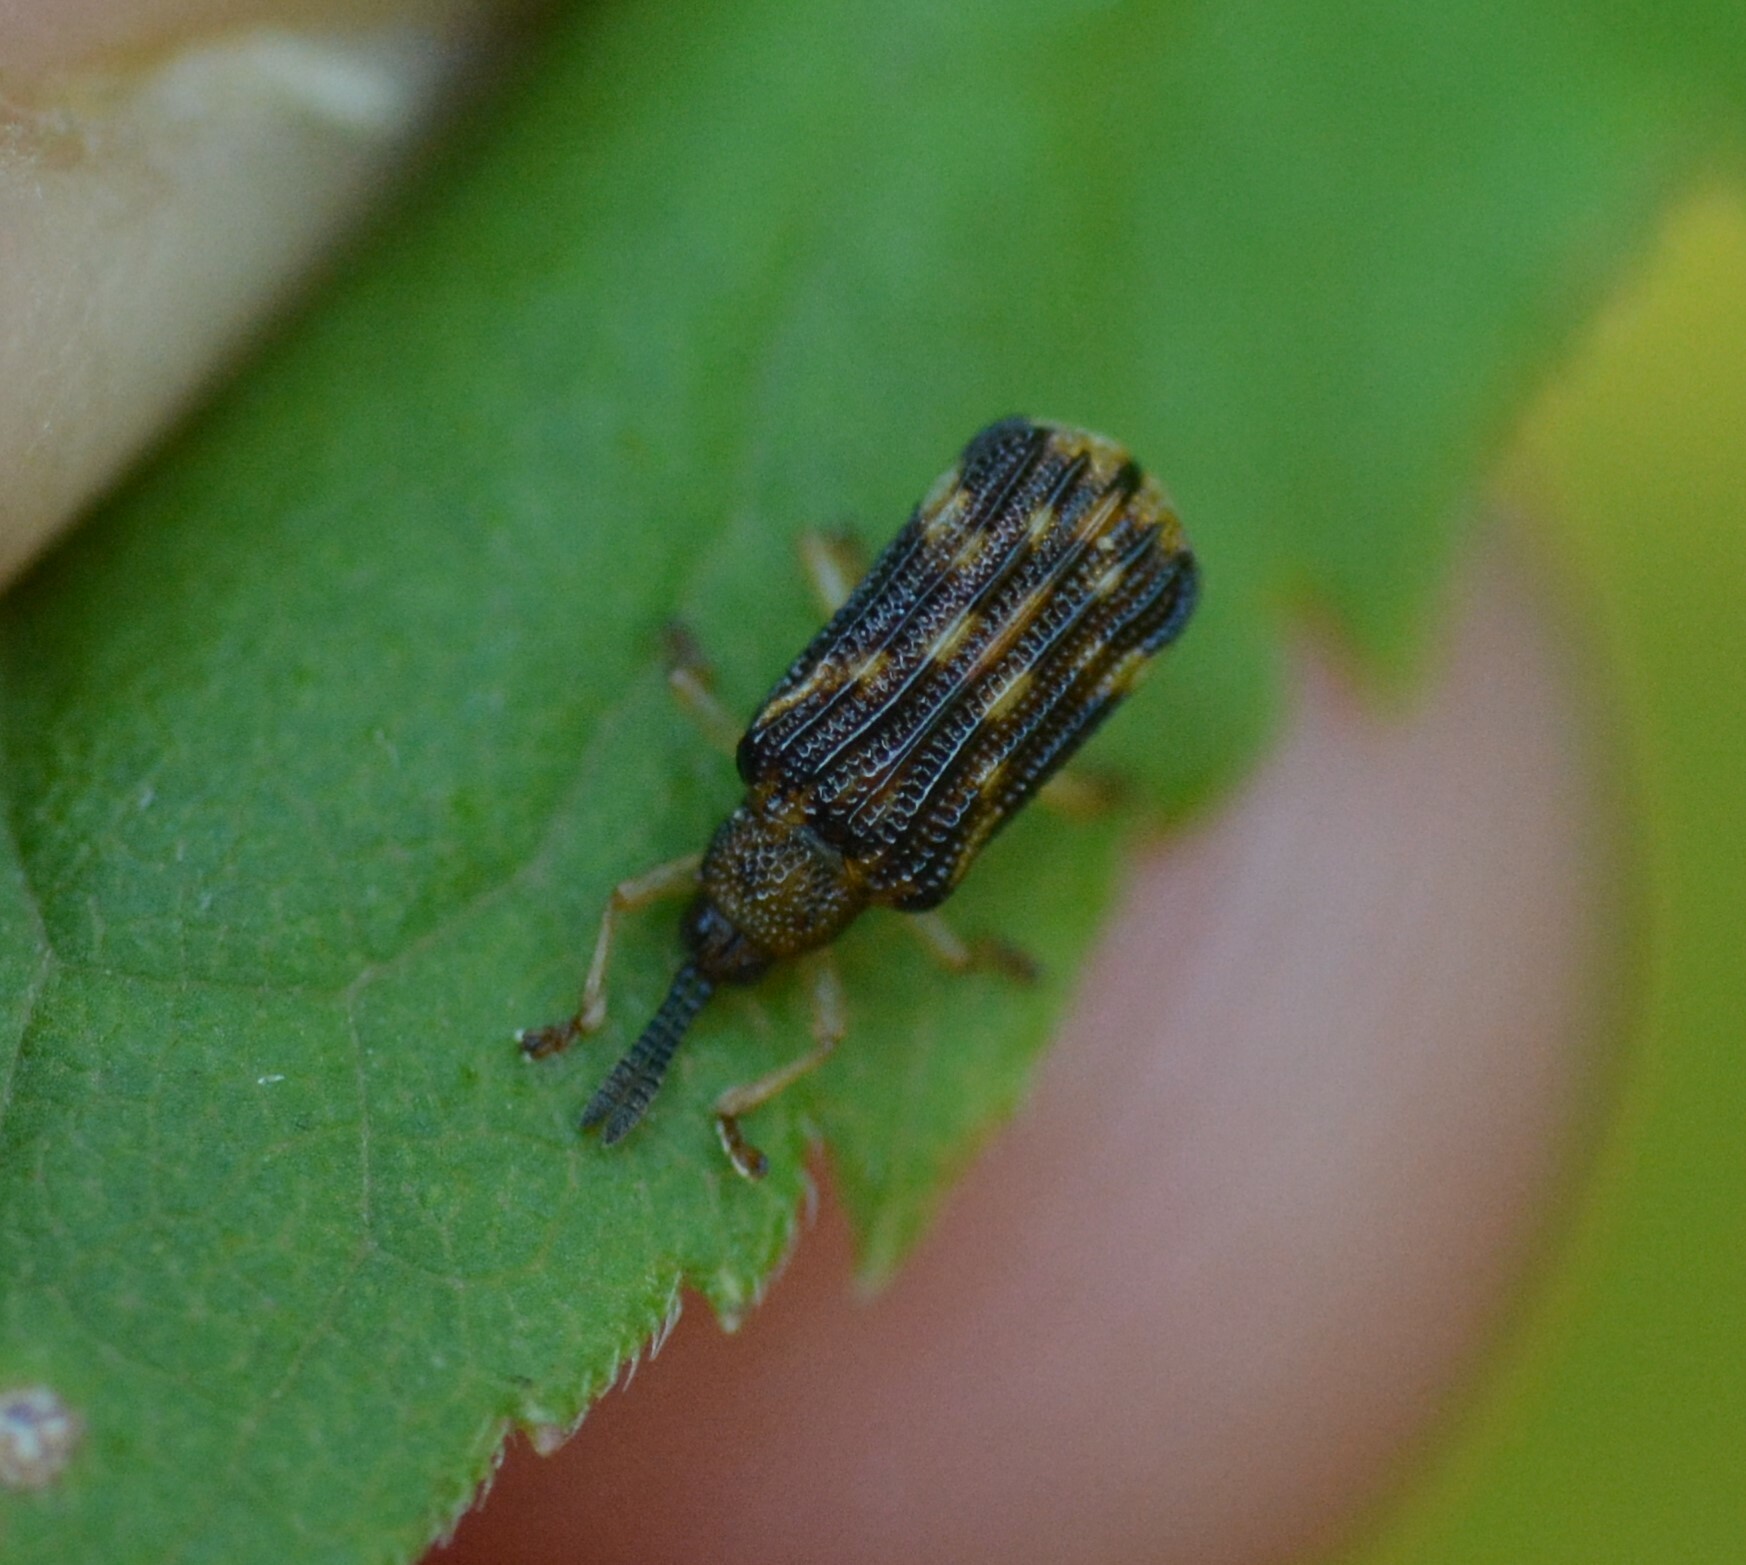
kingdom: Animalia
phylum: Arthropoda
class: Insecta
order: Coleoptera
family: Chrysomelidae
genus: Sumitrosis
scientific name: Sumitrosis inaequalis
